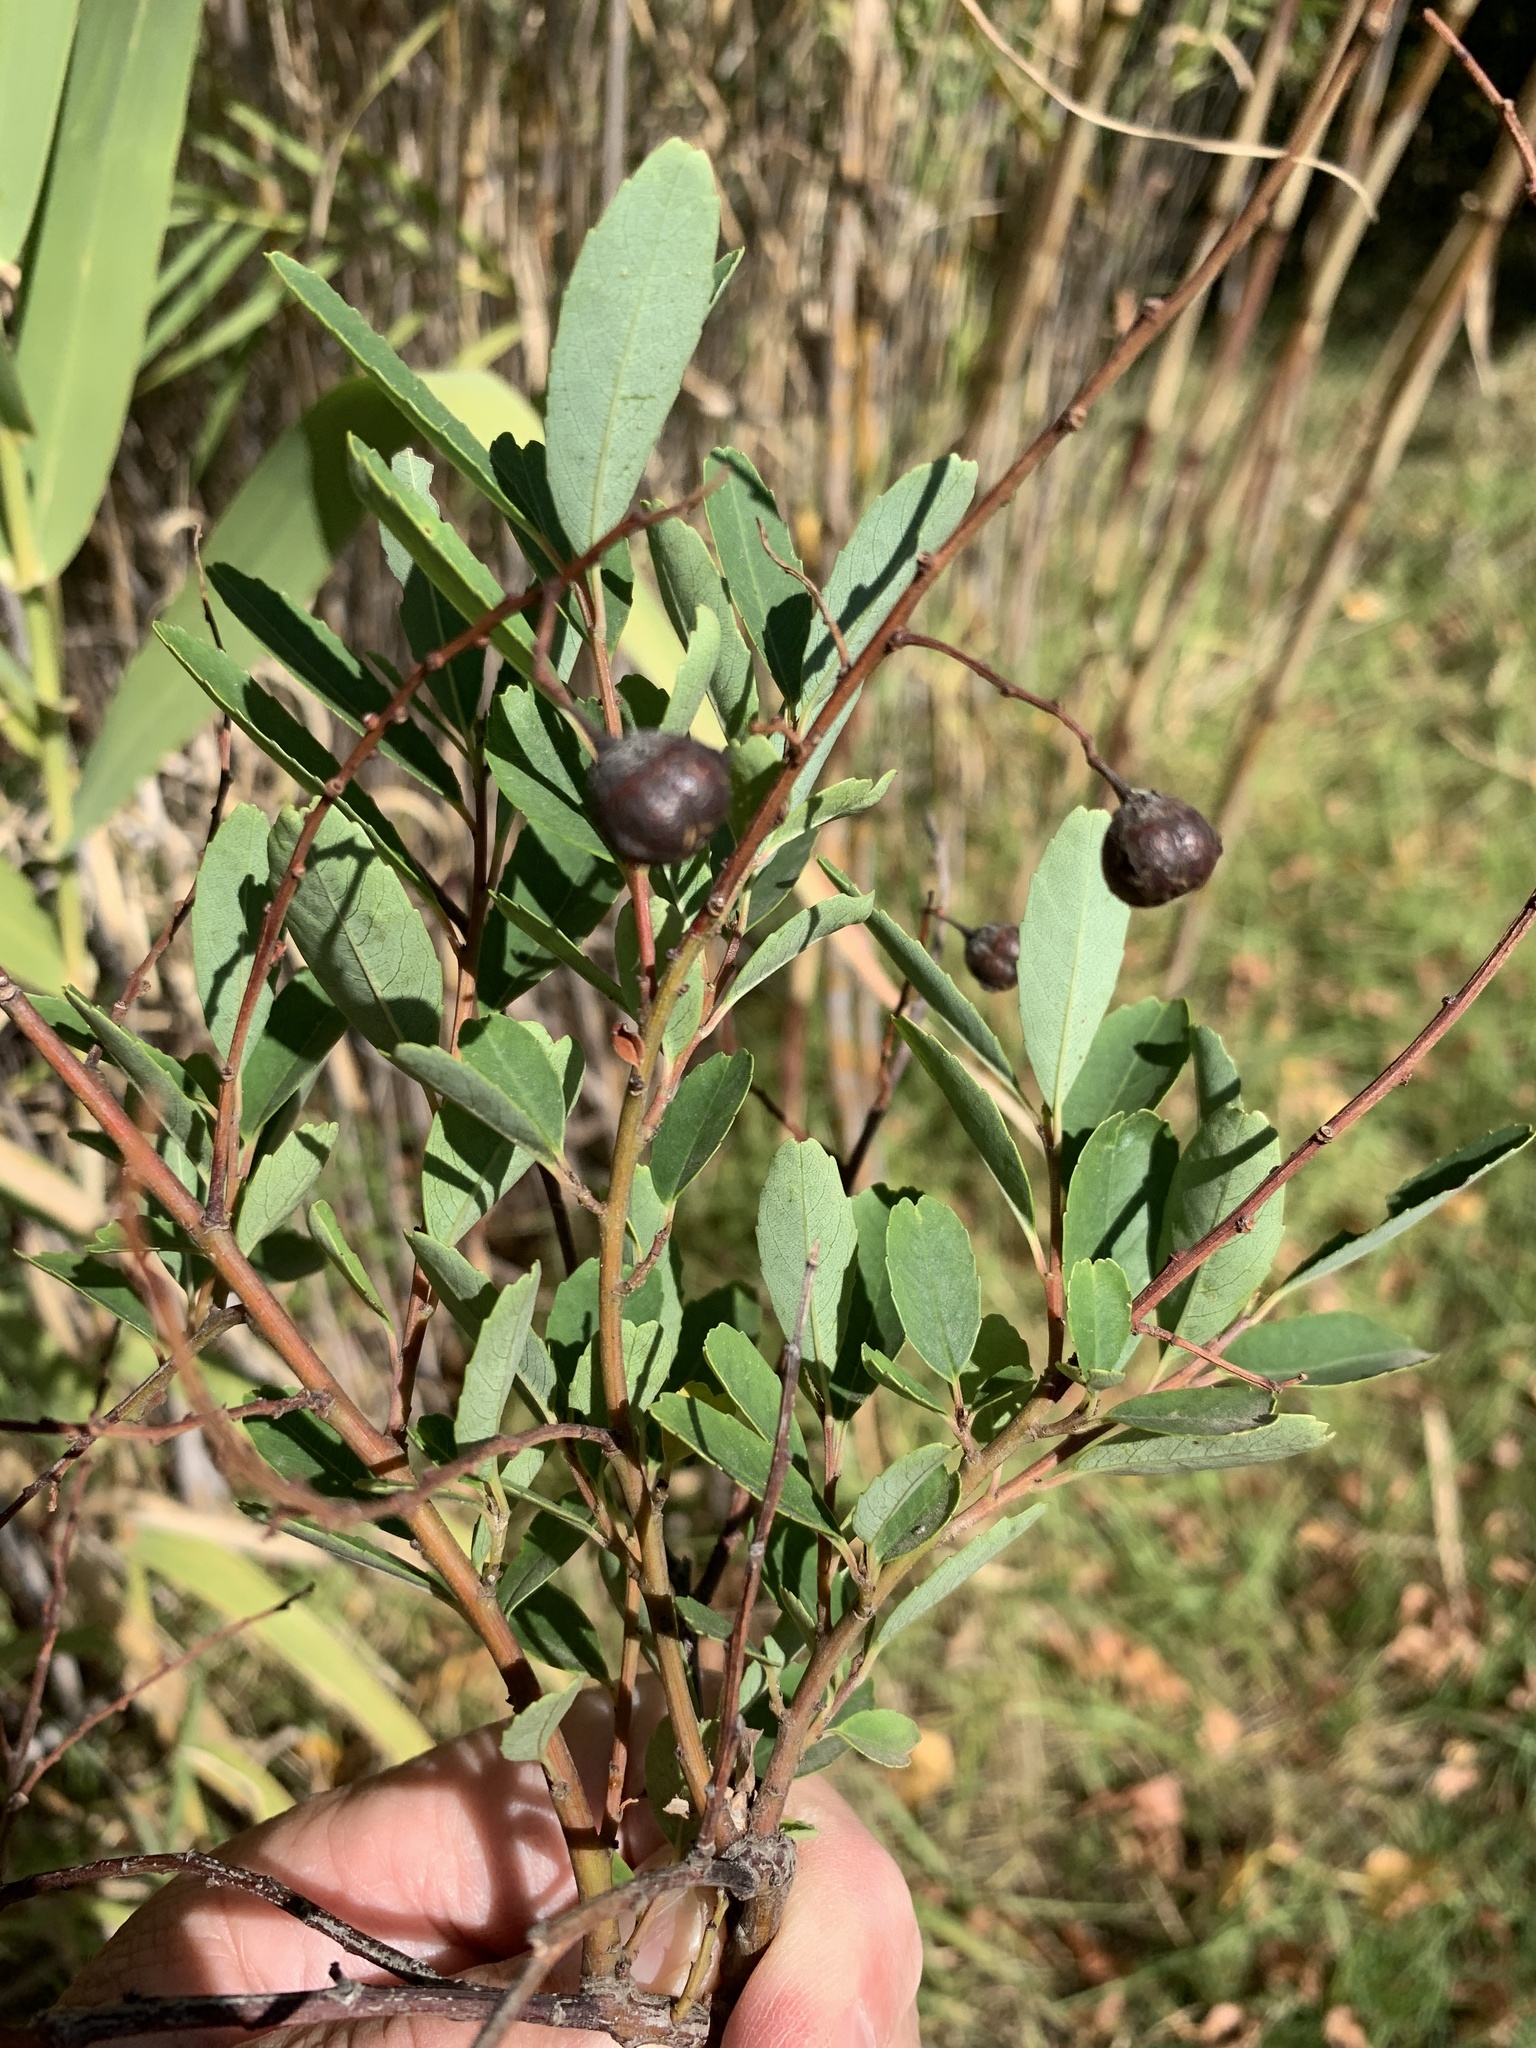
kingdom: Plantae
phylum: Tracheophyta
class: Magnoliopsida
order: Rosales
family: Rhamnaceae
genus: Noltea
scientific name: Noltea africana
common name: Soapbush
